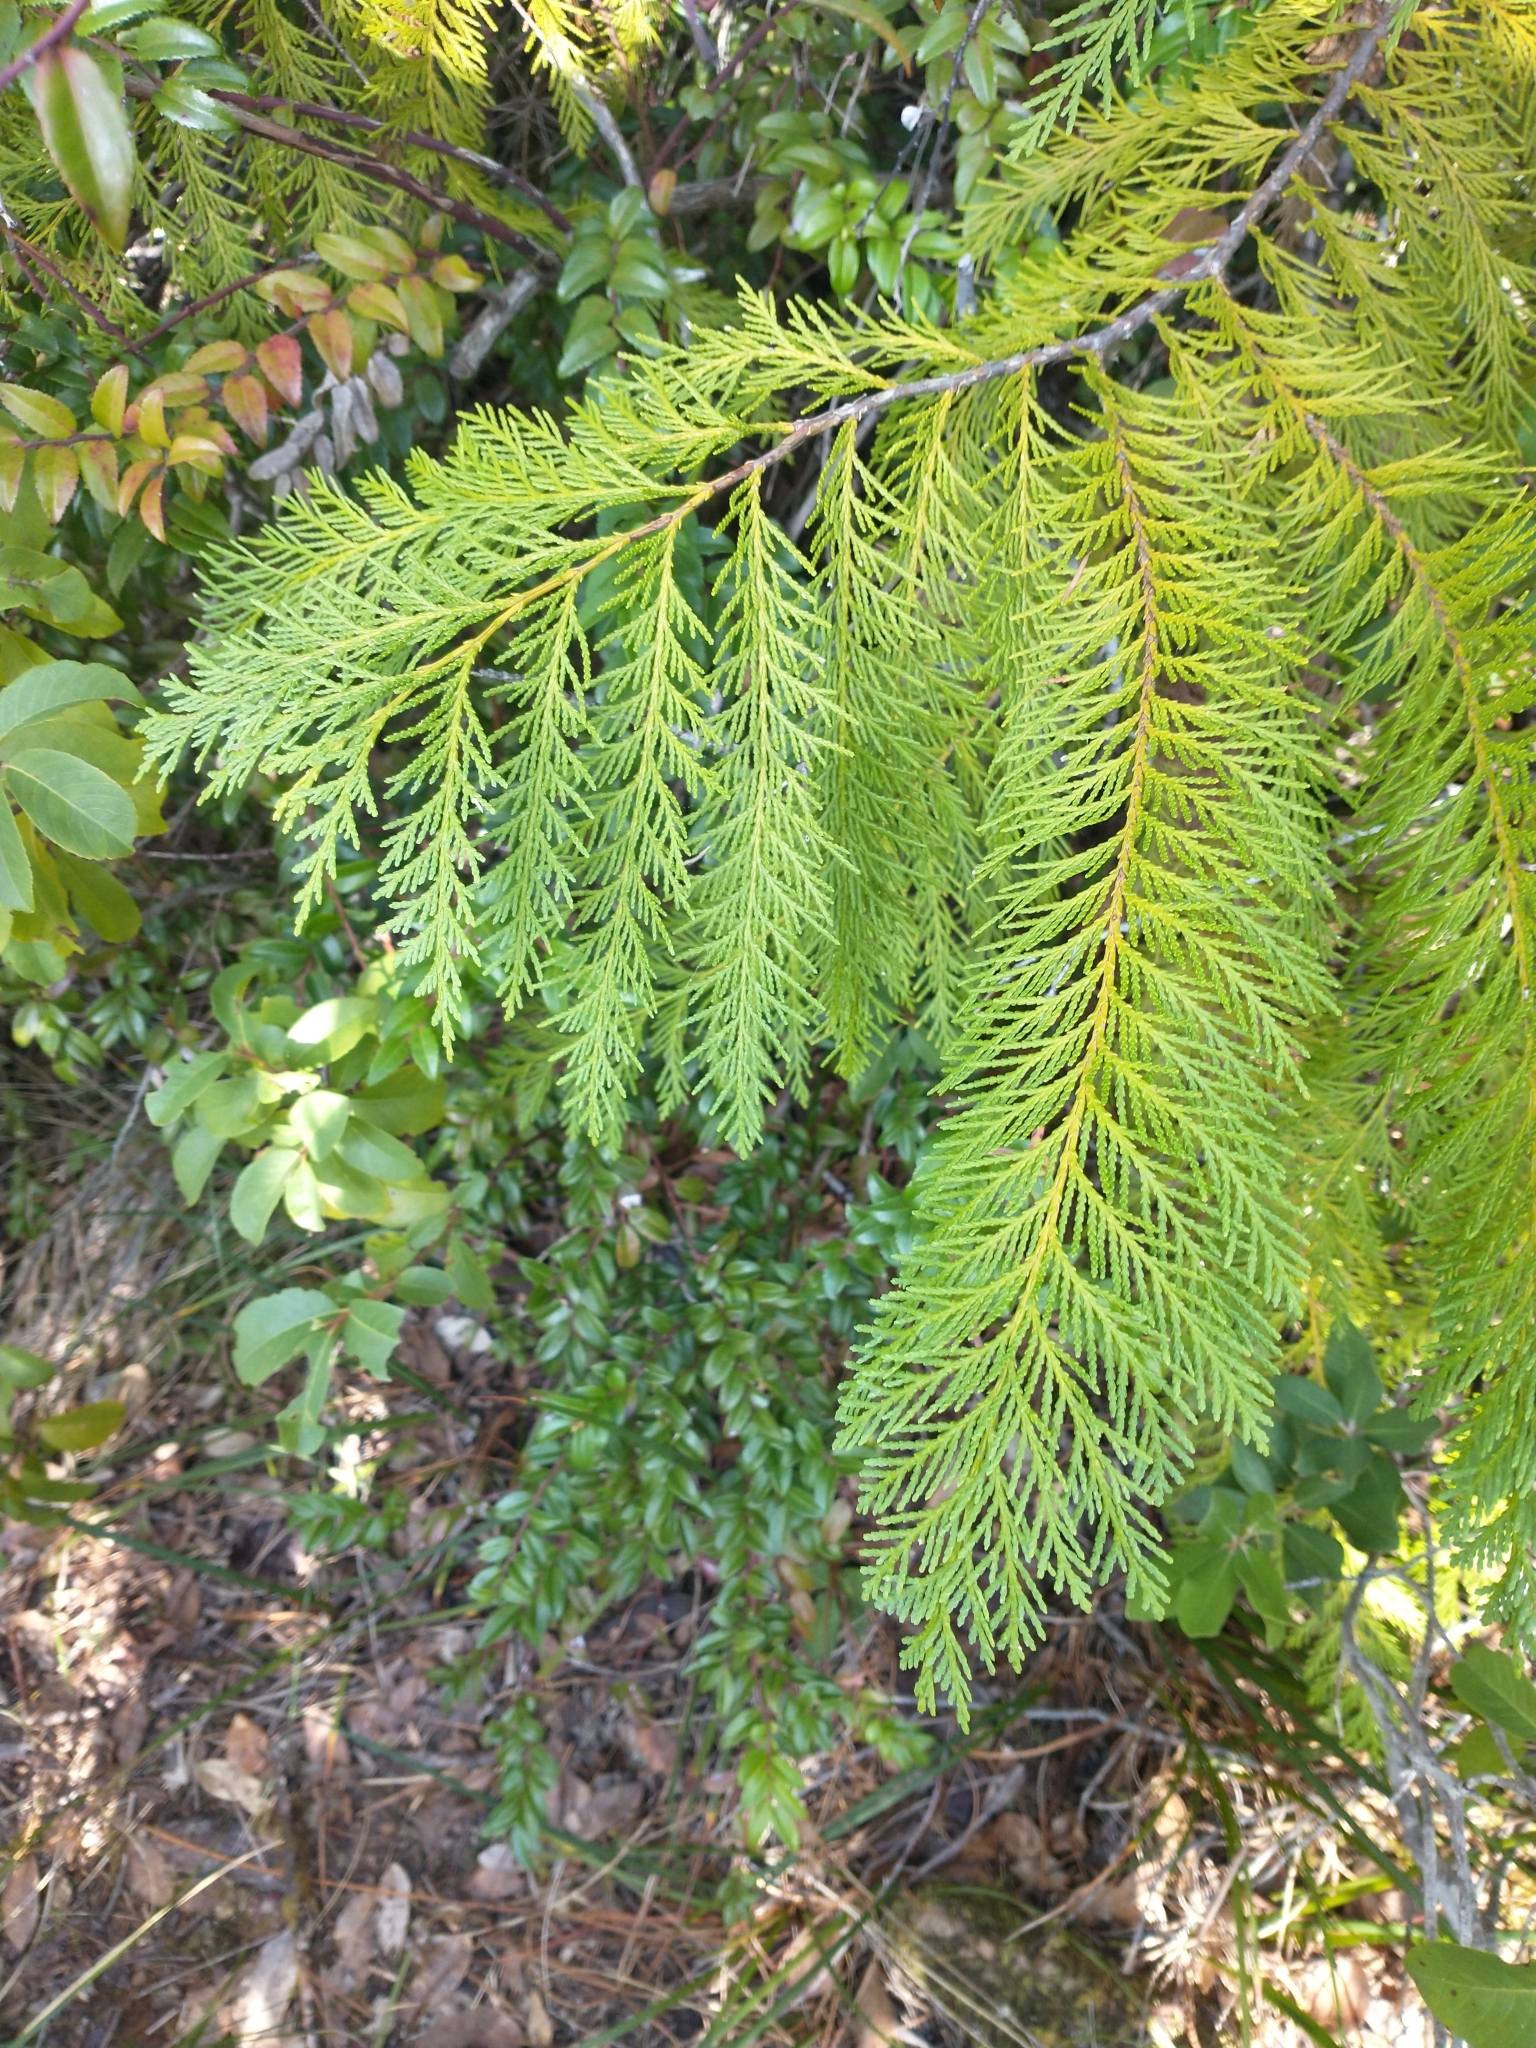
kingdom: Plantae
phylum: Tracheophyta
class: Pinopsida
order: Pinales
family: Cupressaceae
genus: Chamaecyparis
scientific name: Chamaecyparis lawsoniana
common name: Lawson's cypress
